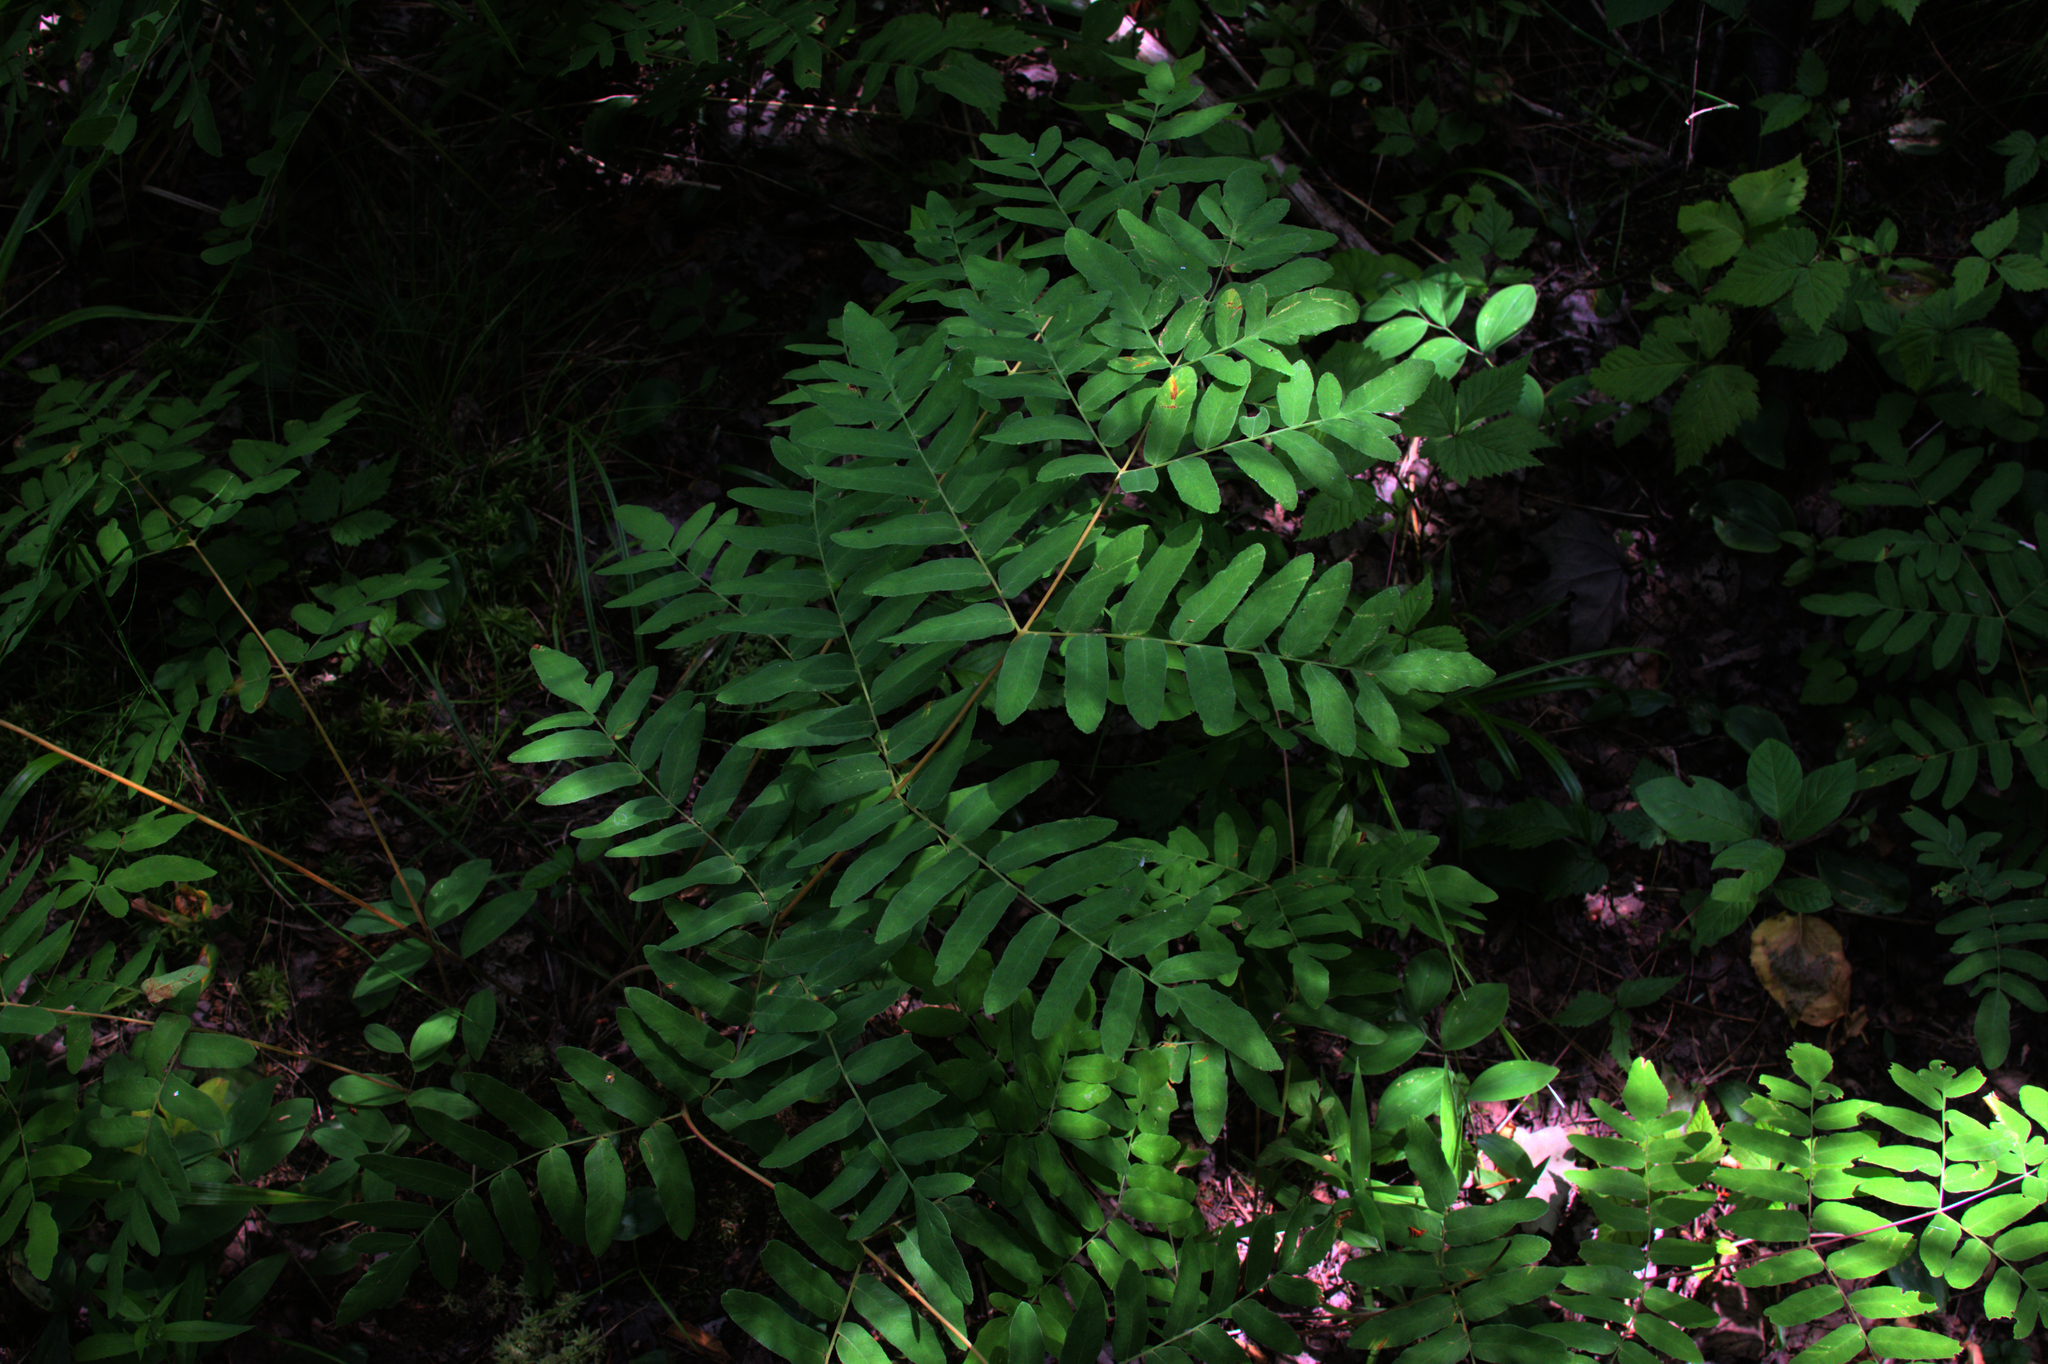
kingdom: Plantae
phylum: Tracheophyta
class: Polypodiopsida
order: Osmundales
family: Osmundaceae
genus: Osmunda
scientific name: Osmunda spectabilis
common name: American royal fern
